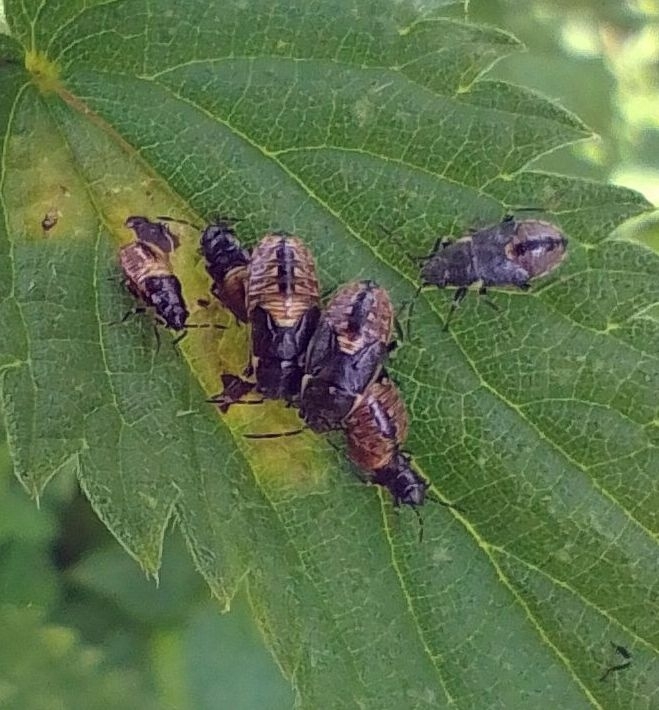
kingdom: Animalia
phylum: Arthropoda
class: Insecta
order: Hemiptera
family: Heterogastridae
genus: Heterogaster
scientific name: Heterogaster urticae
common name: Seed bug
